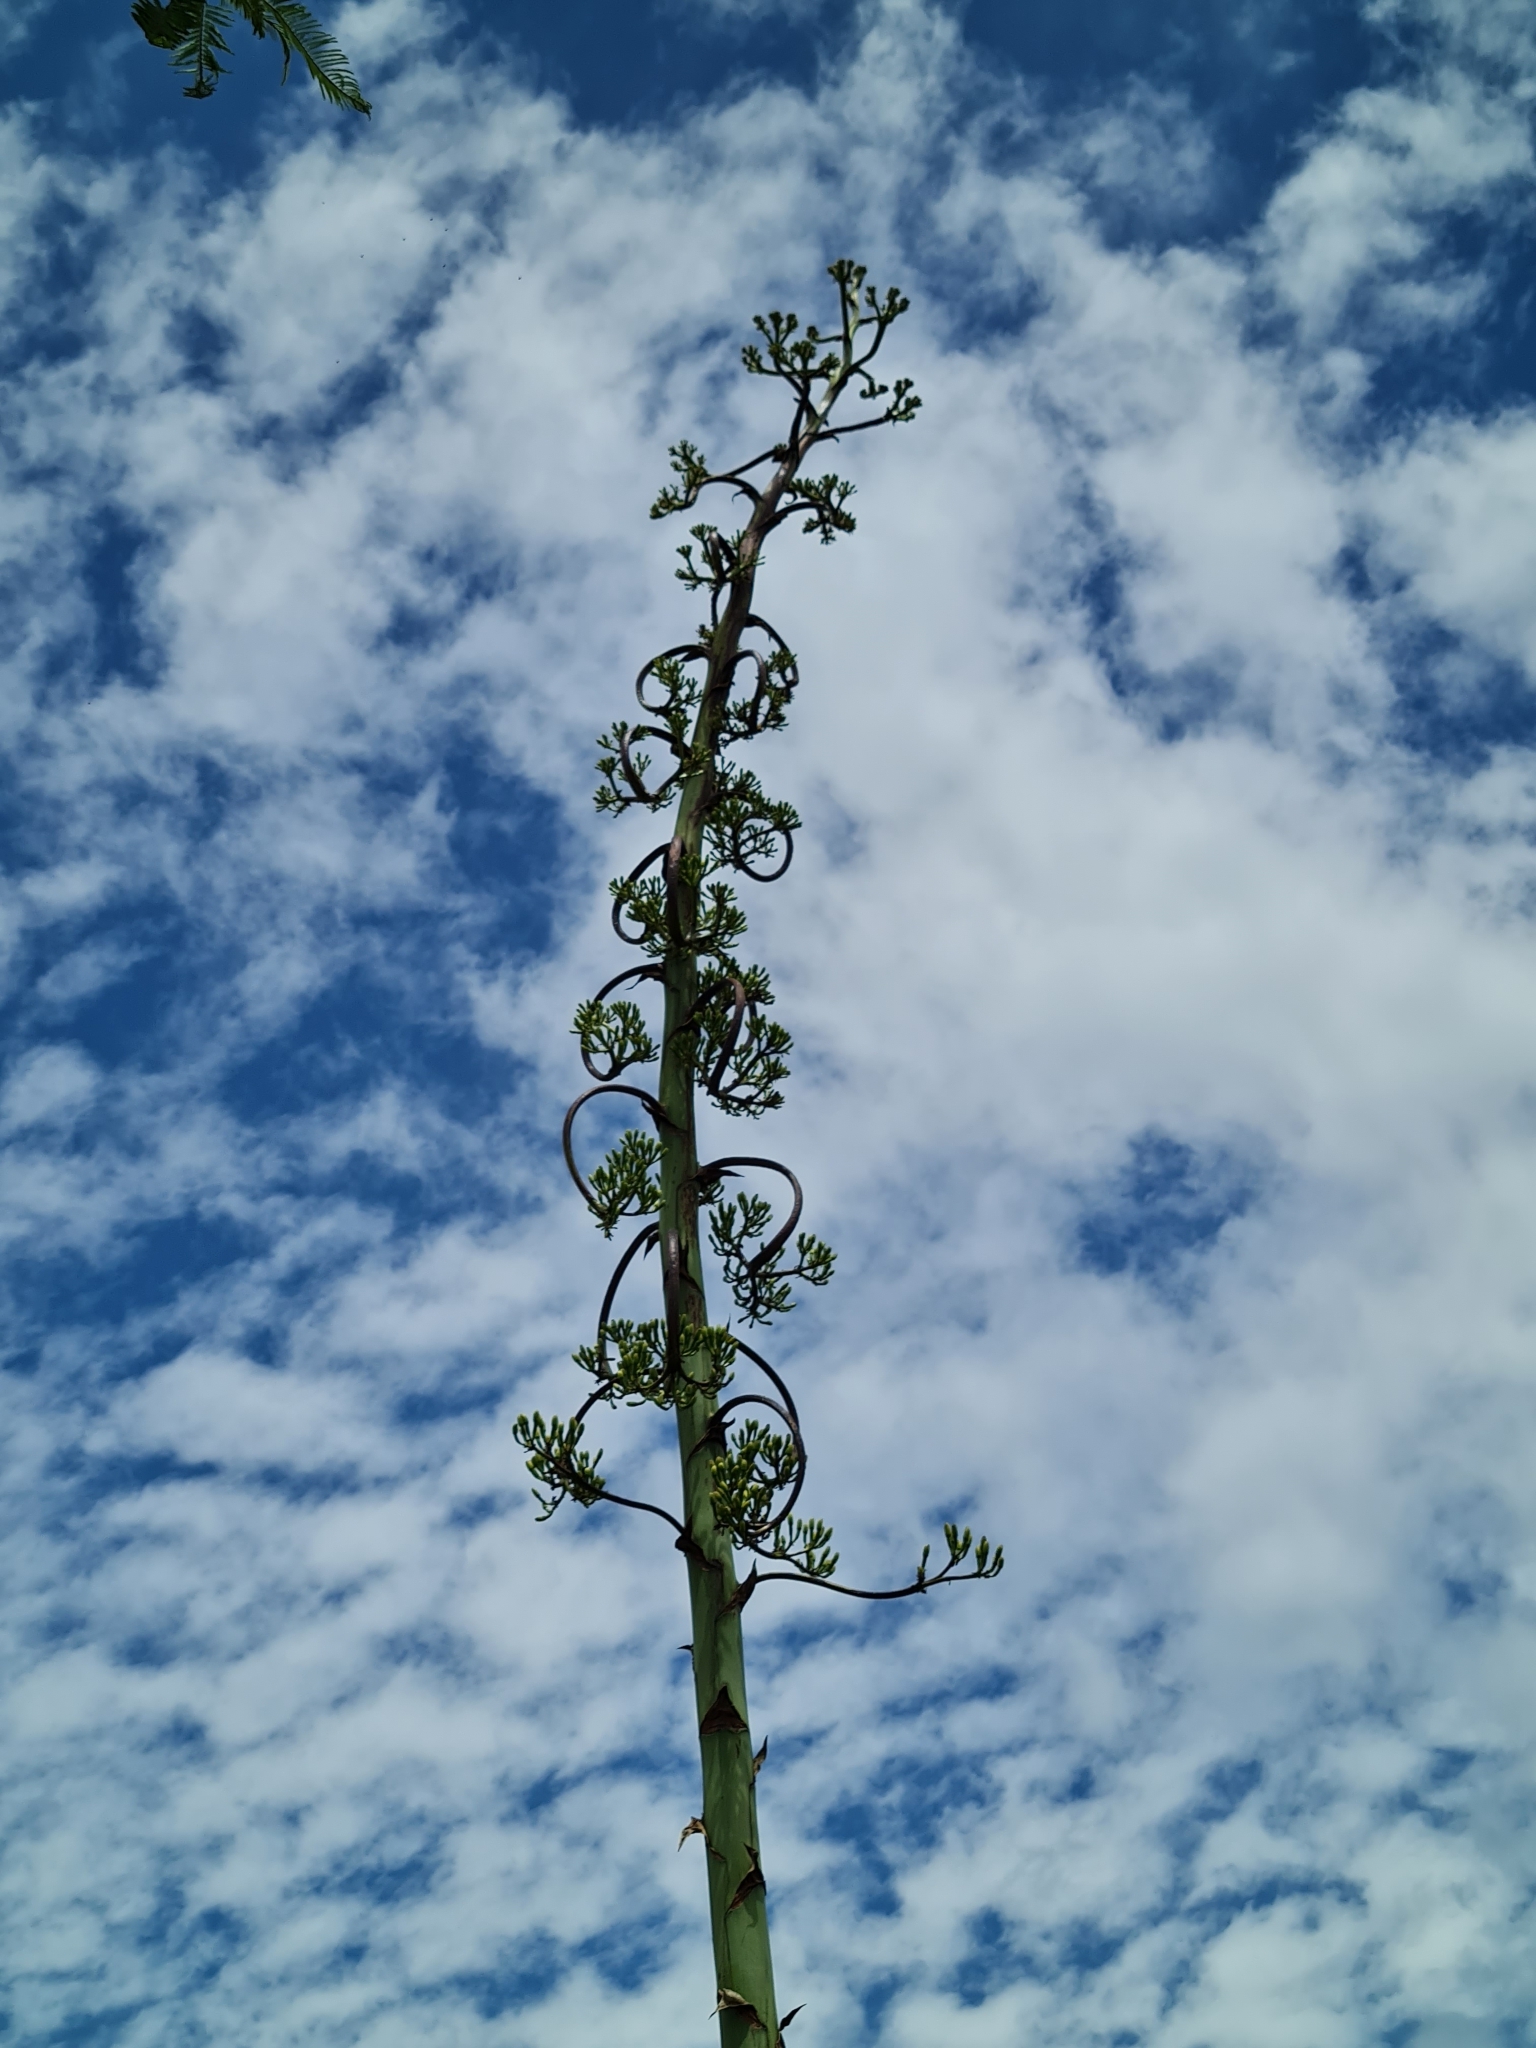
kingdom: Plantae
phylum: Tracheophyta
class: Liliopsida
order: Asparagales
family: Asparagaceae
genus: Agave
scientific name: Agave americana
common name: Centuryplant
